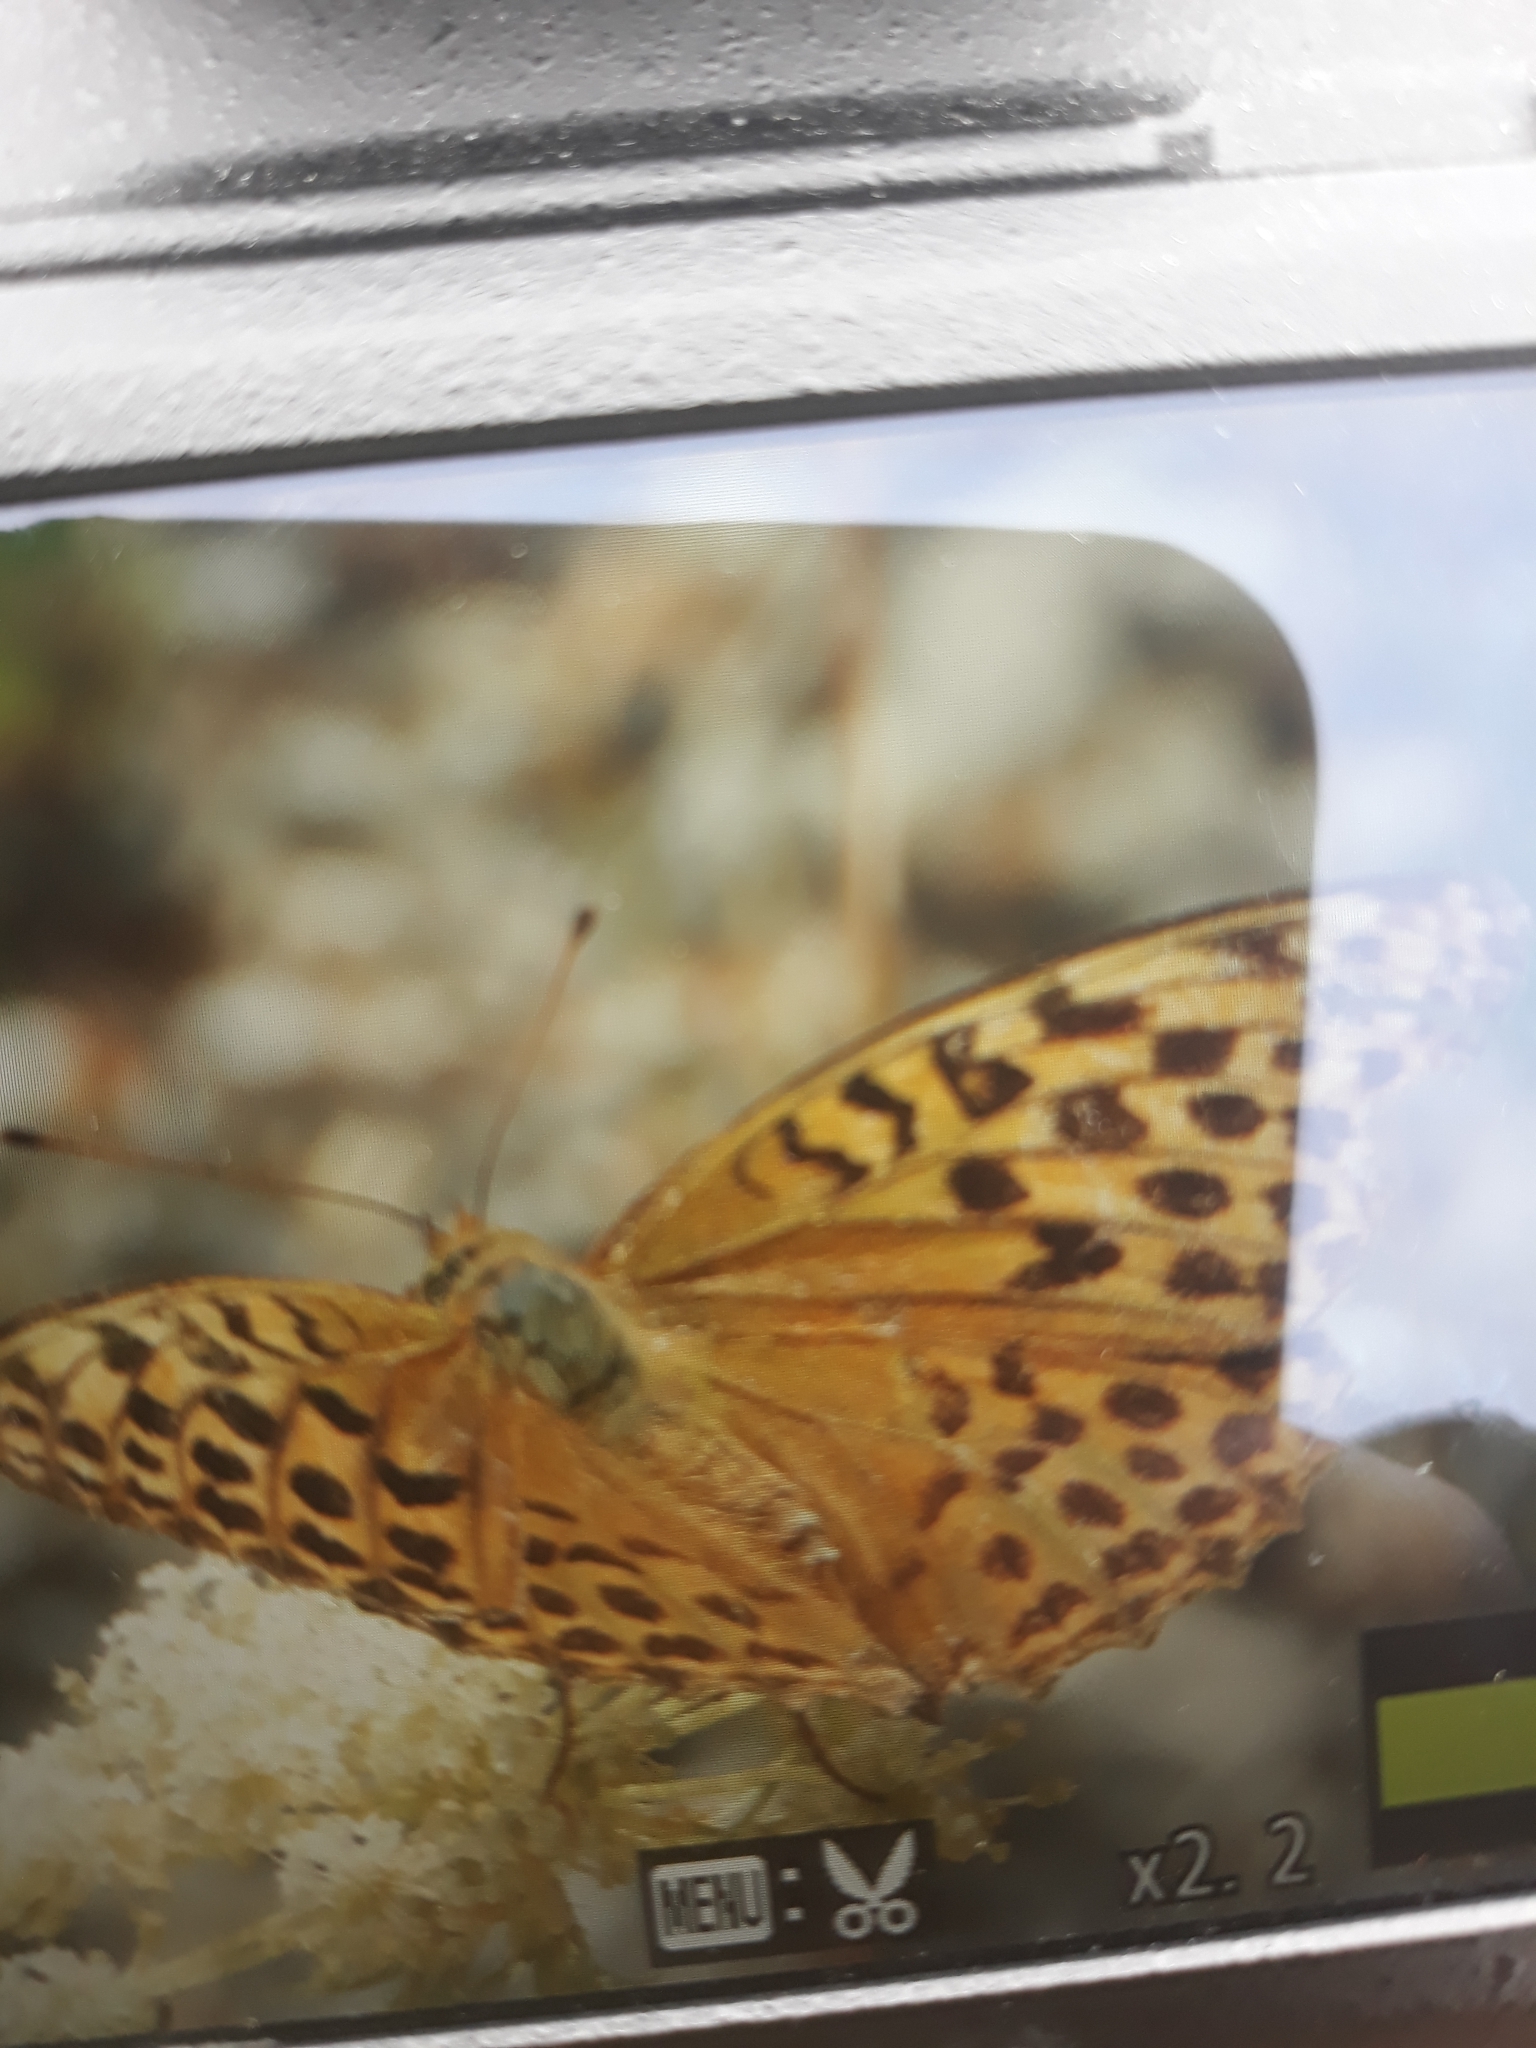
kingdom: Animalia
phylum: Arthropoda
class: Insecta
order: Lepidoptera
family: Nymphalidae
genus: Argynnis
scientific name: Argynnis paphia
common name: Silver-washed fritillary
